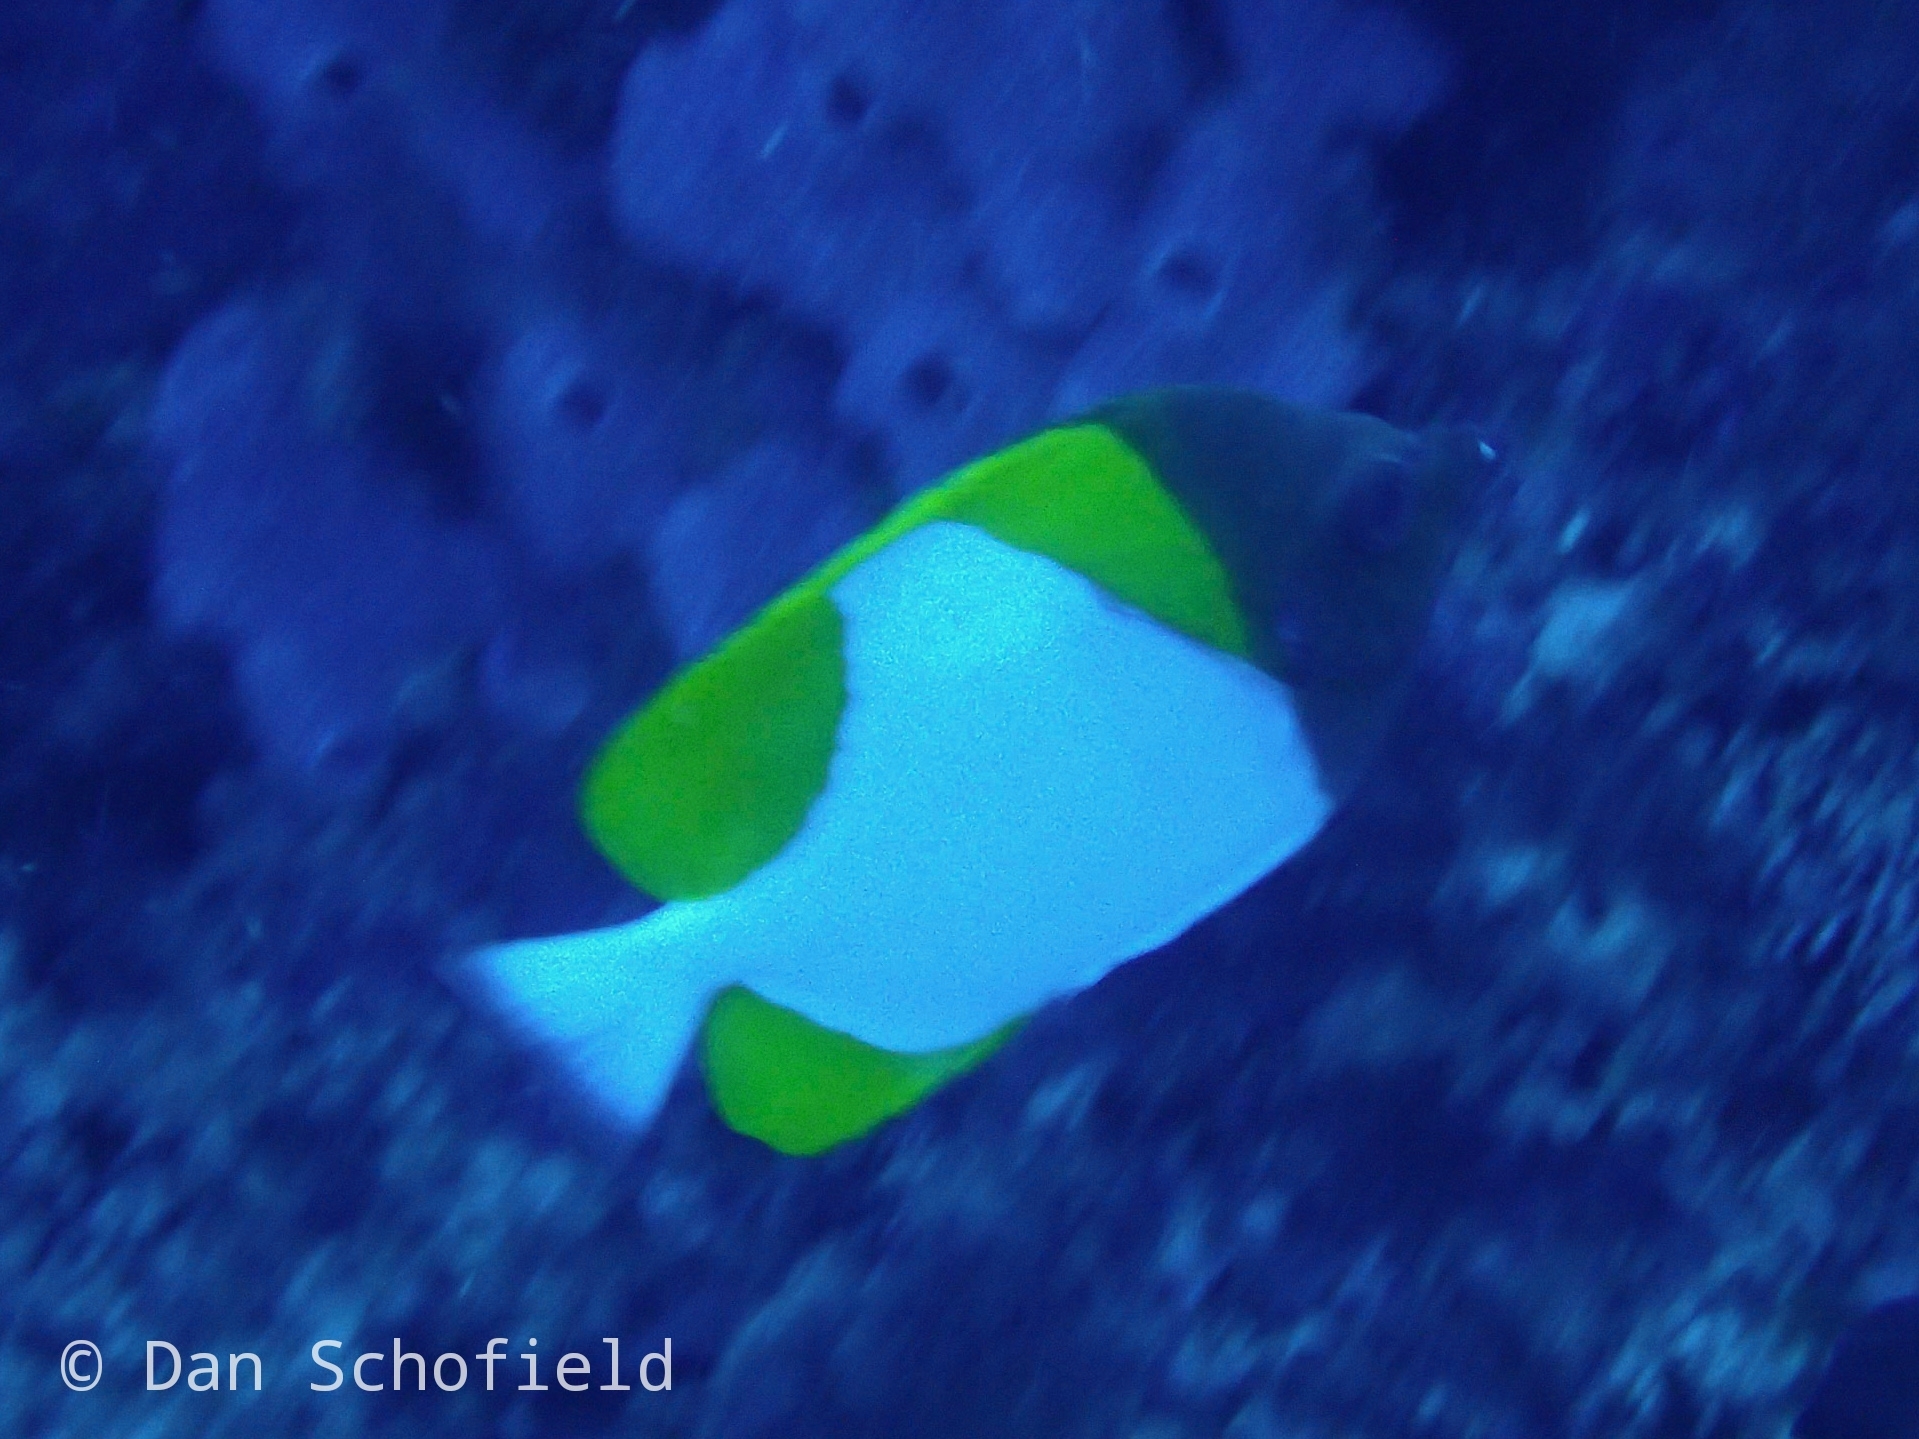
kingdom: Animalia
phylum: Chordata
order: Perciformes
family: Chaetodontidae
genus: Hemitaurichthys
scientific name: Hemitaurichthys polylepis
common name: Brushytoothed butterflyfish
